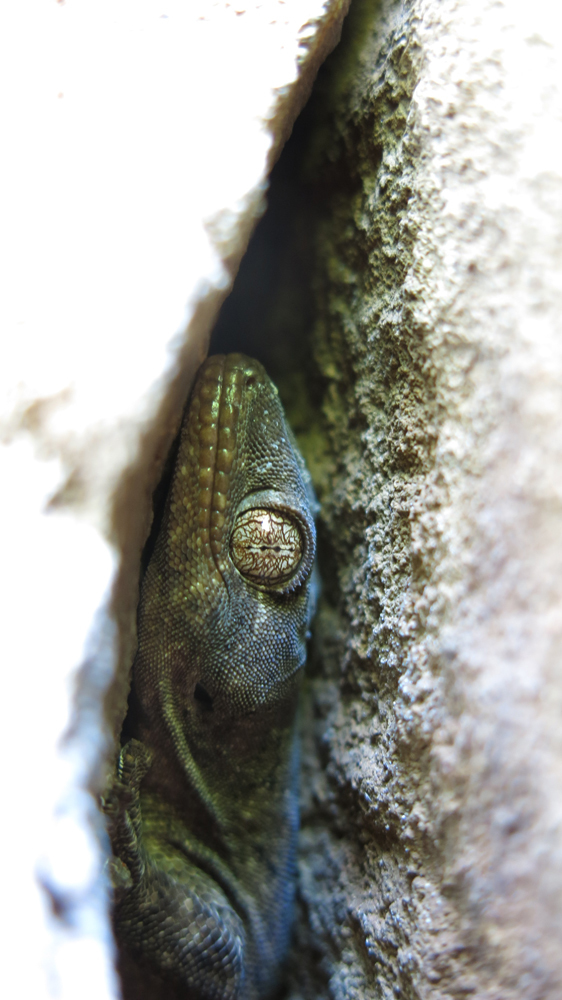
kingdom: Animalia
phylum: Chordata
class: Squamata
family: Gekkonidae
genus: Homopholis
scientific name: Homopholis walbergii
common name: Wahlberg’s velvet gecko
